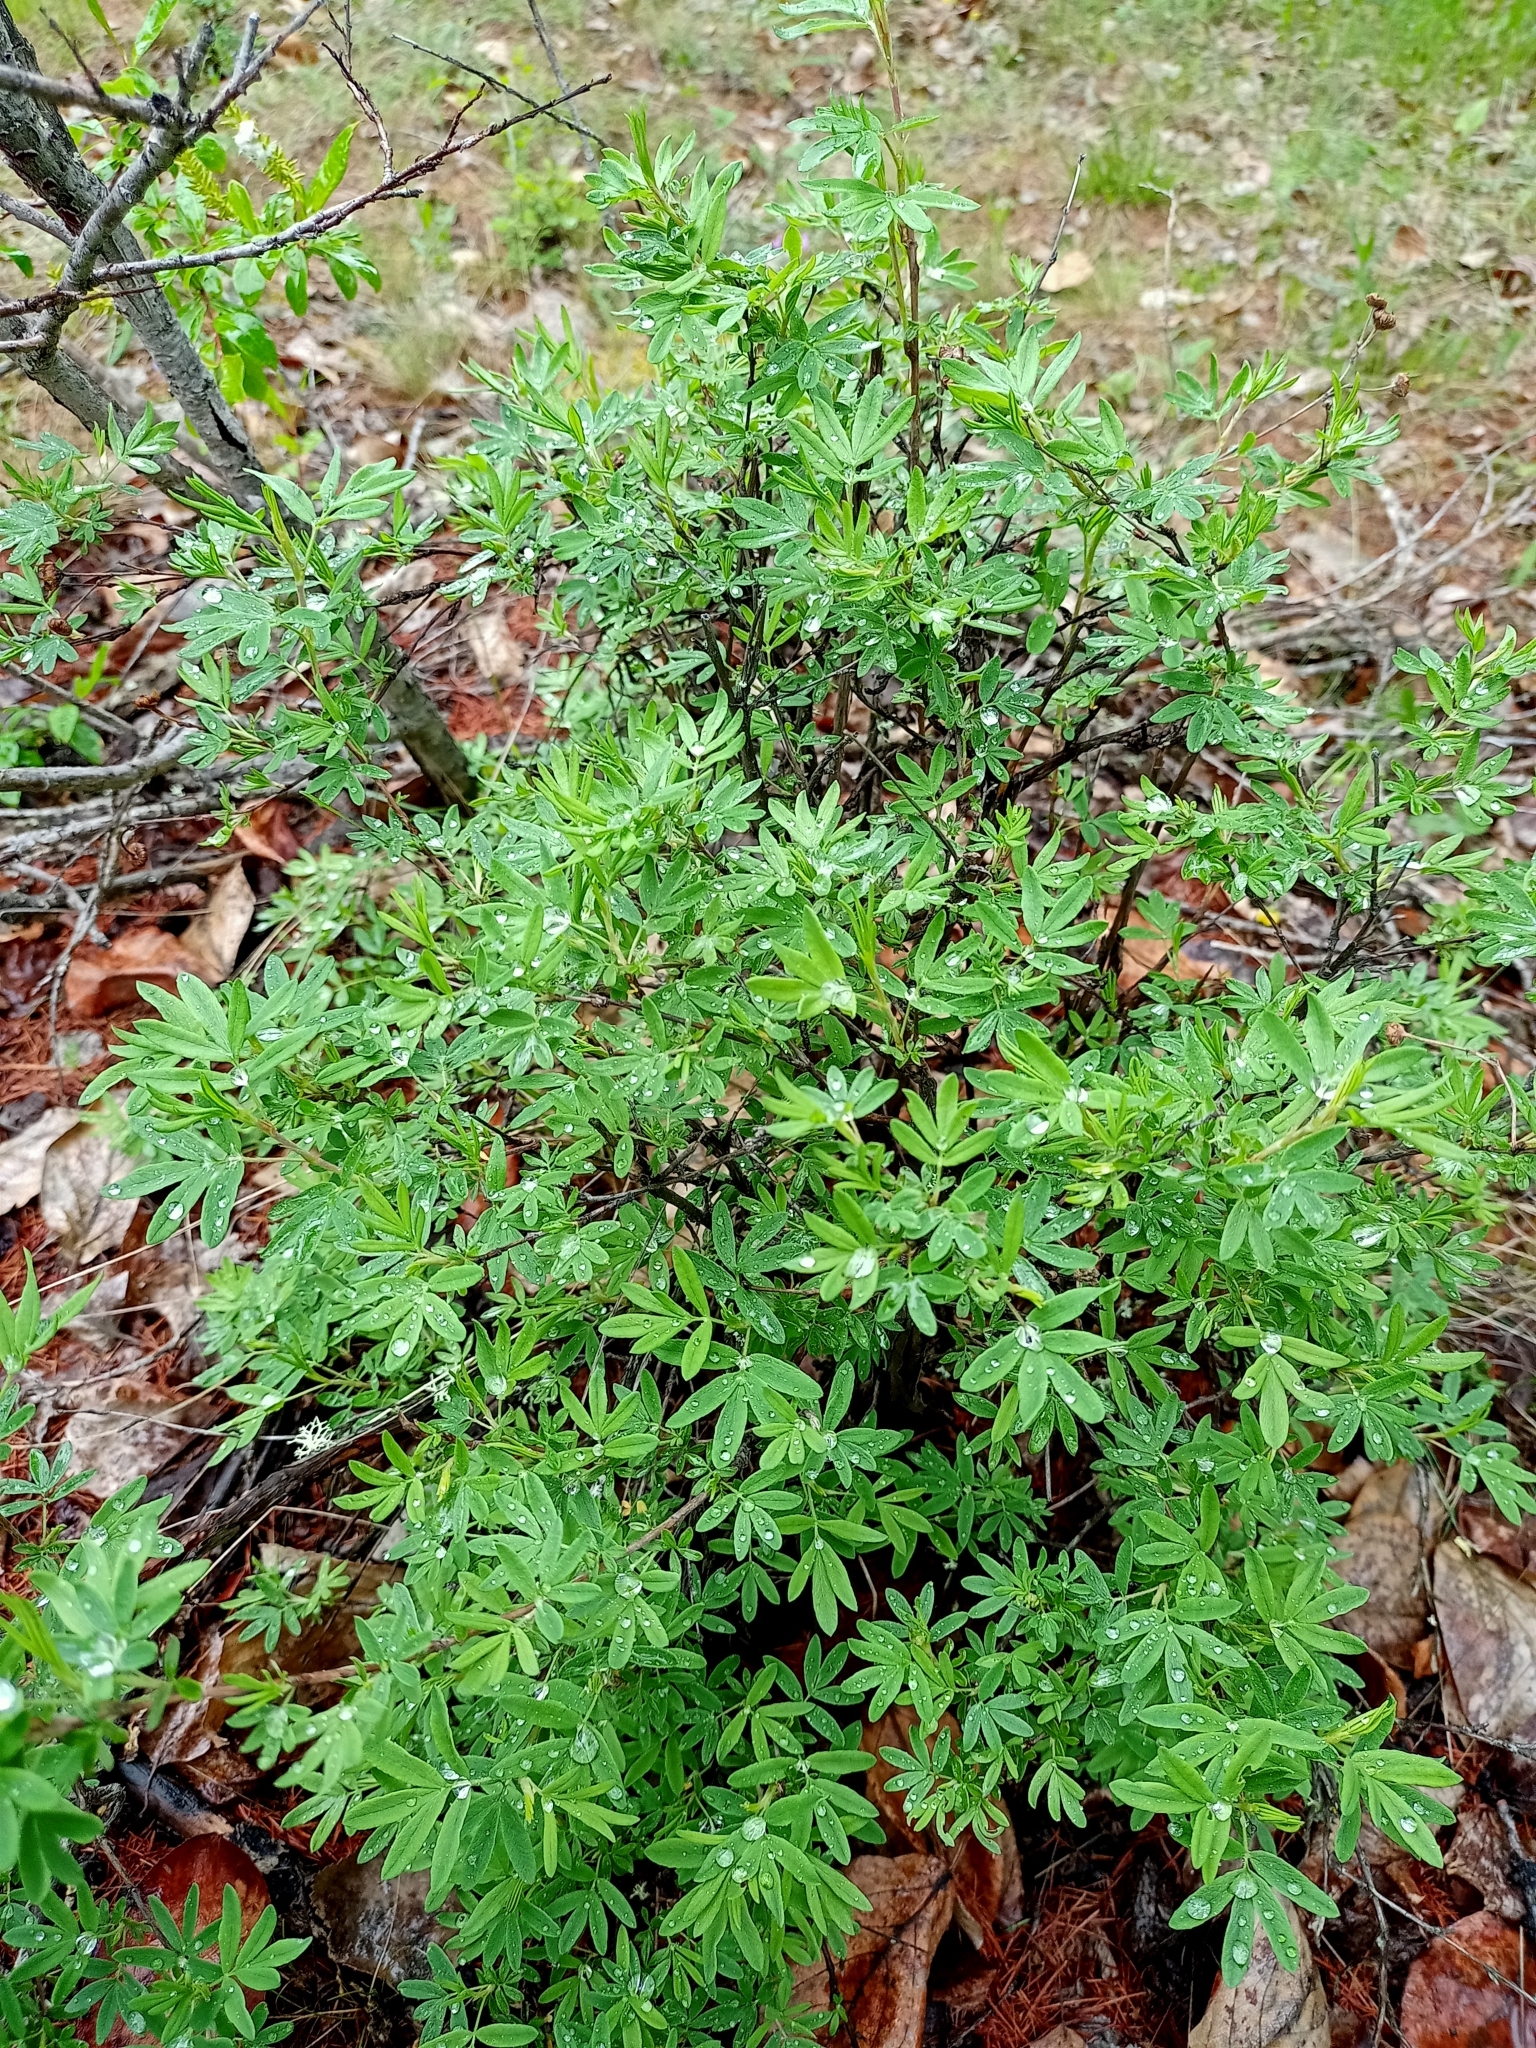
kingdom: Plantae
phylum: Tracheophyta
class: Magnoliopsida
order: Rosales
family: Rosaceae
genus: Dasiphora
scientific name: Dasiphora fruticosa
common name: Shrubby cinquefoil
